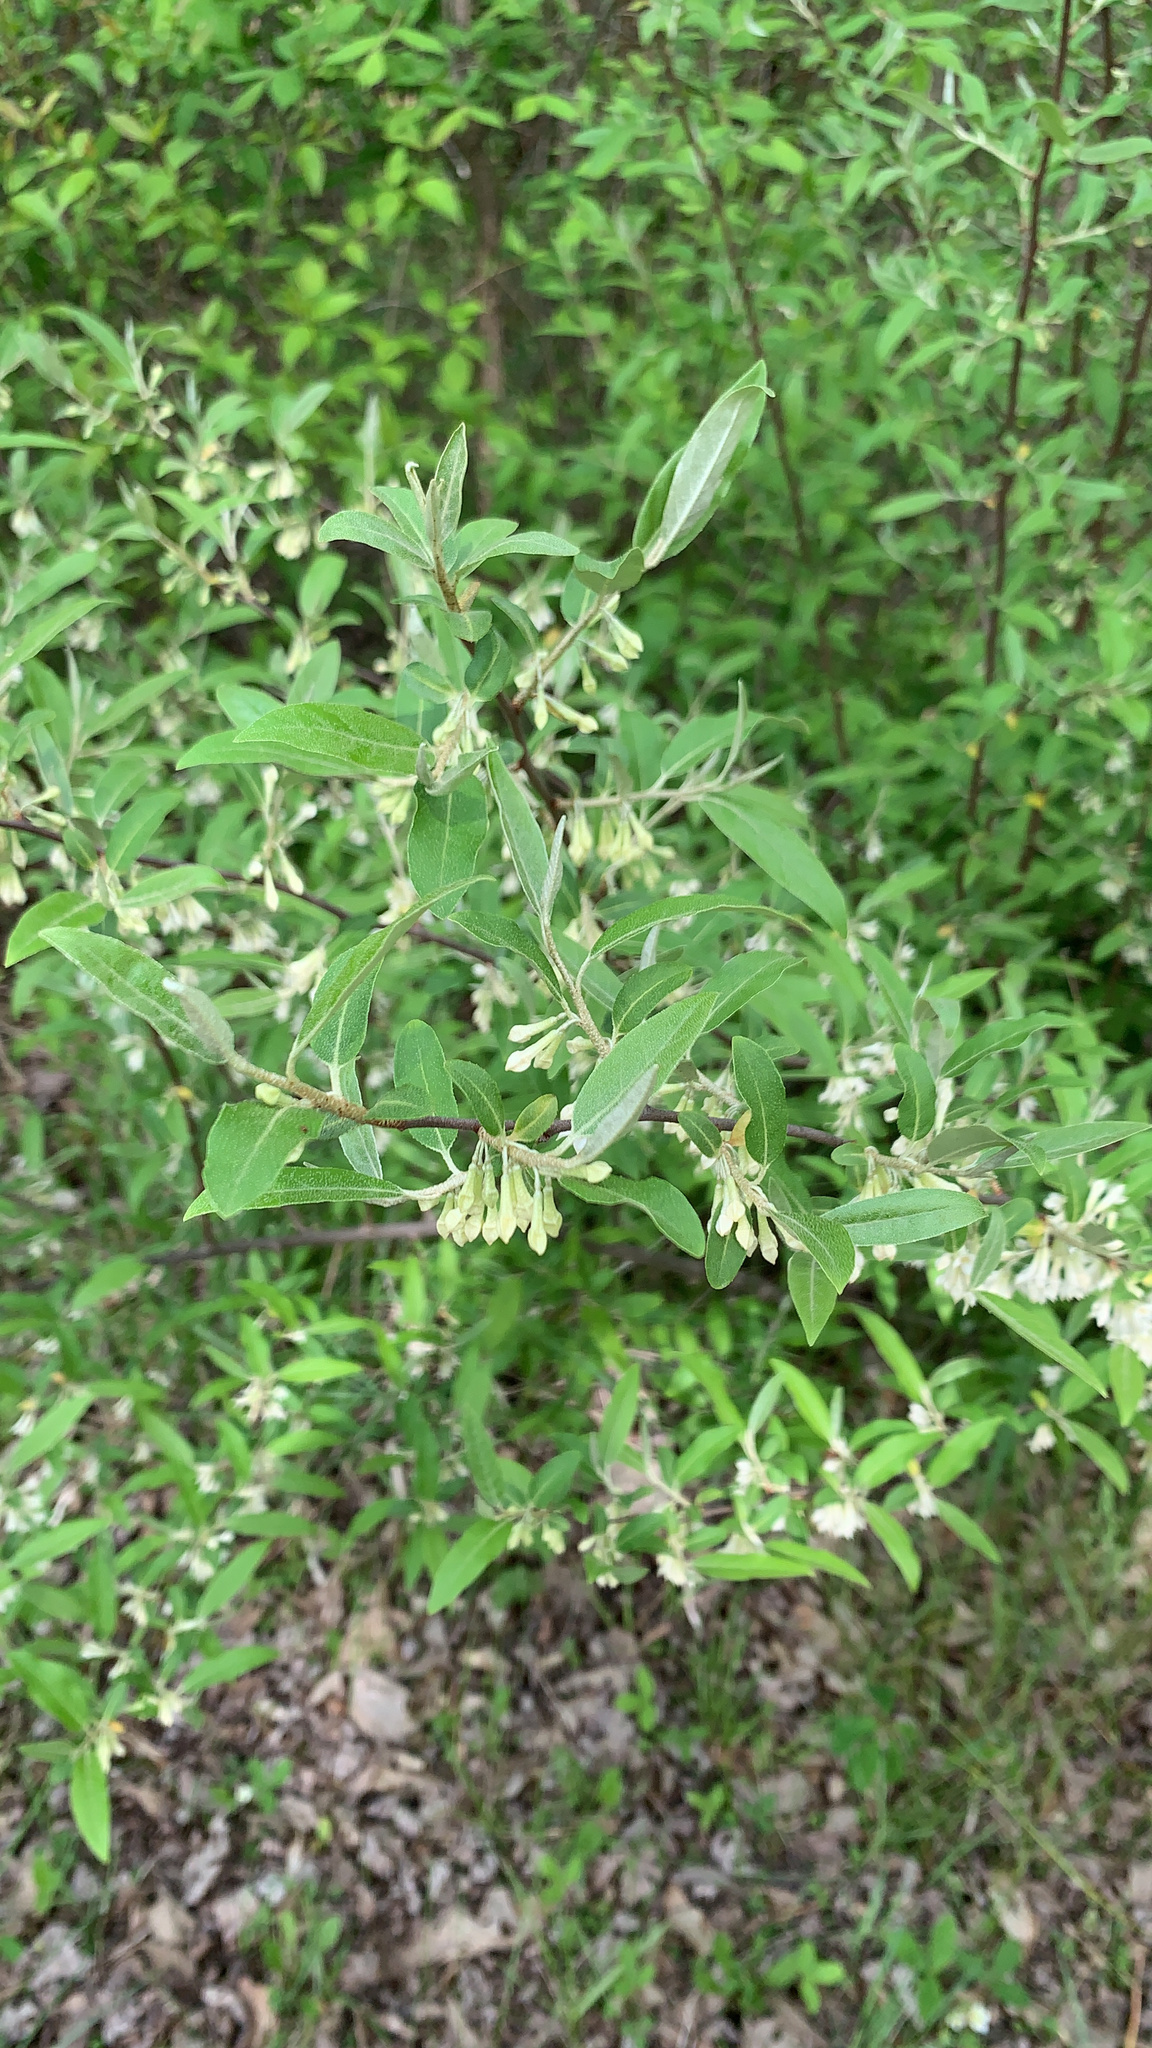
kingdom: Plantae
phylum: Tracheophyta
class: Magnoliopsida
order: Rosales
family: Elaeagnaceae
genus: Elaeagnus
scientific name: Elaeagnus umbellata
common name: Autumn olive
